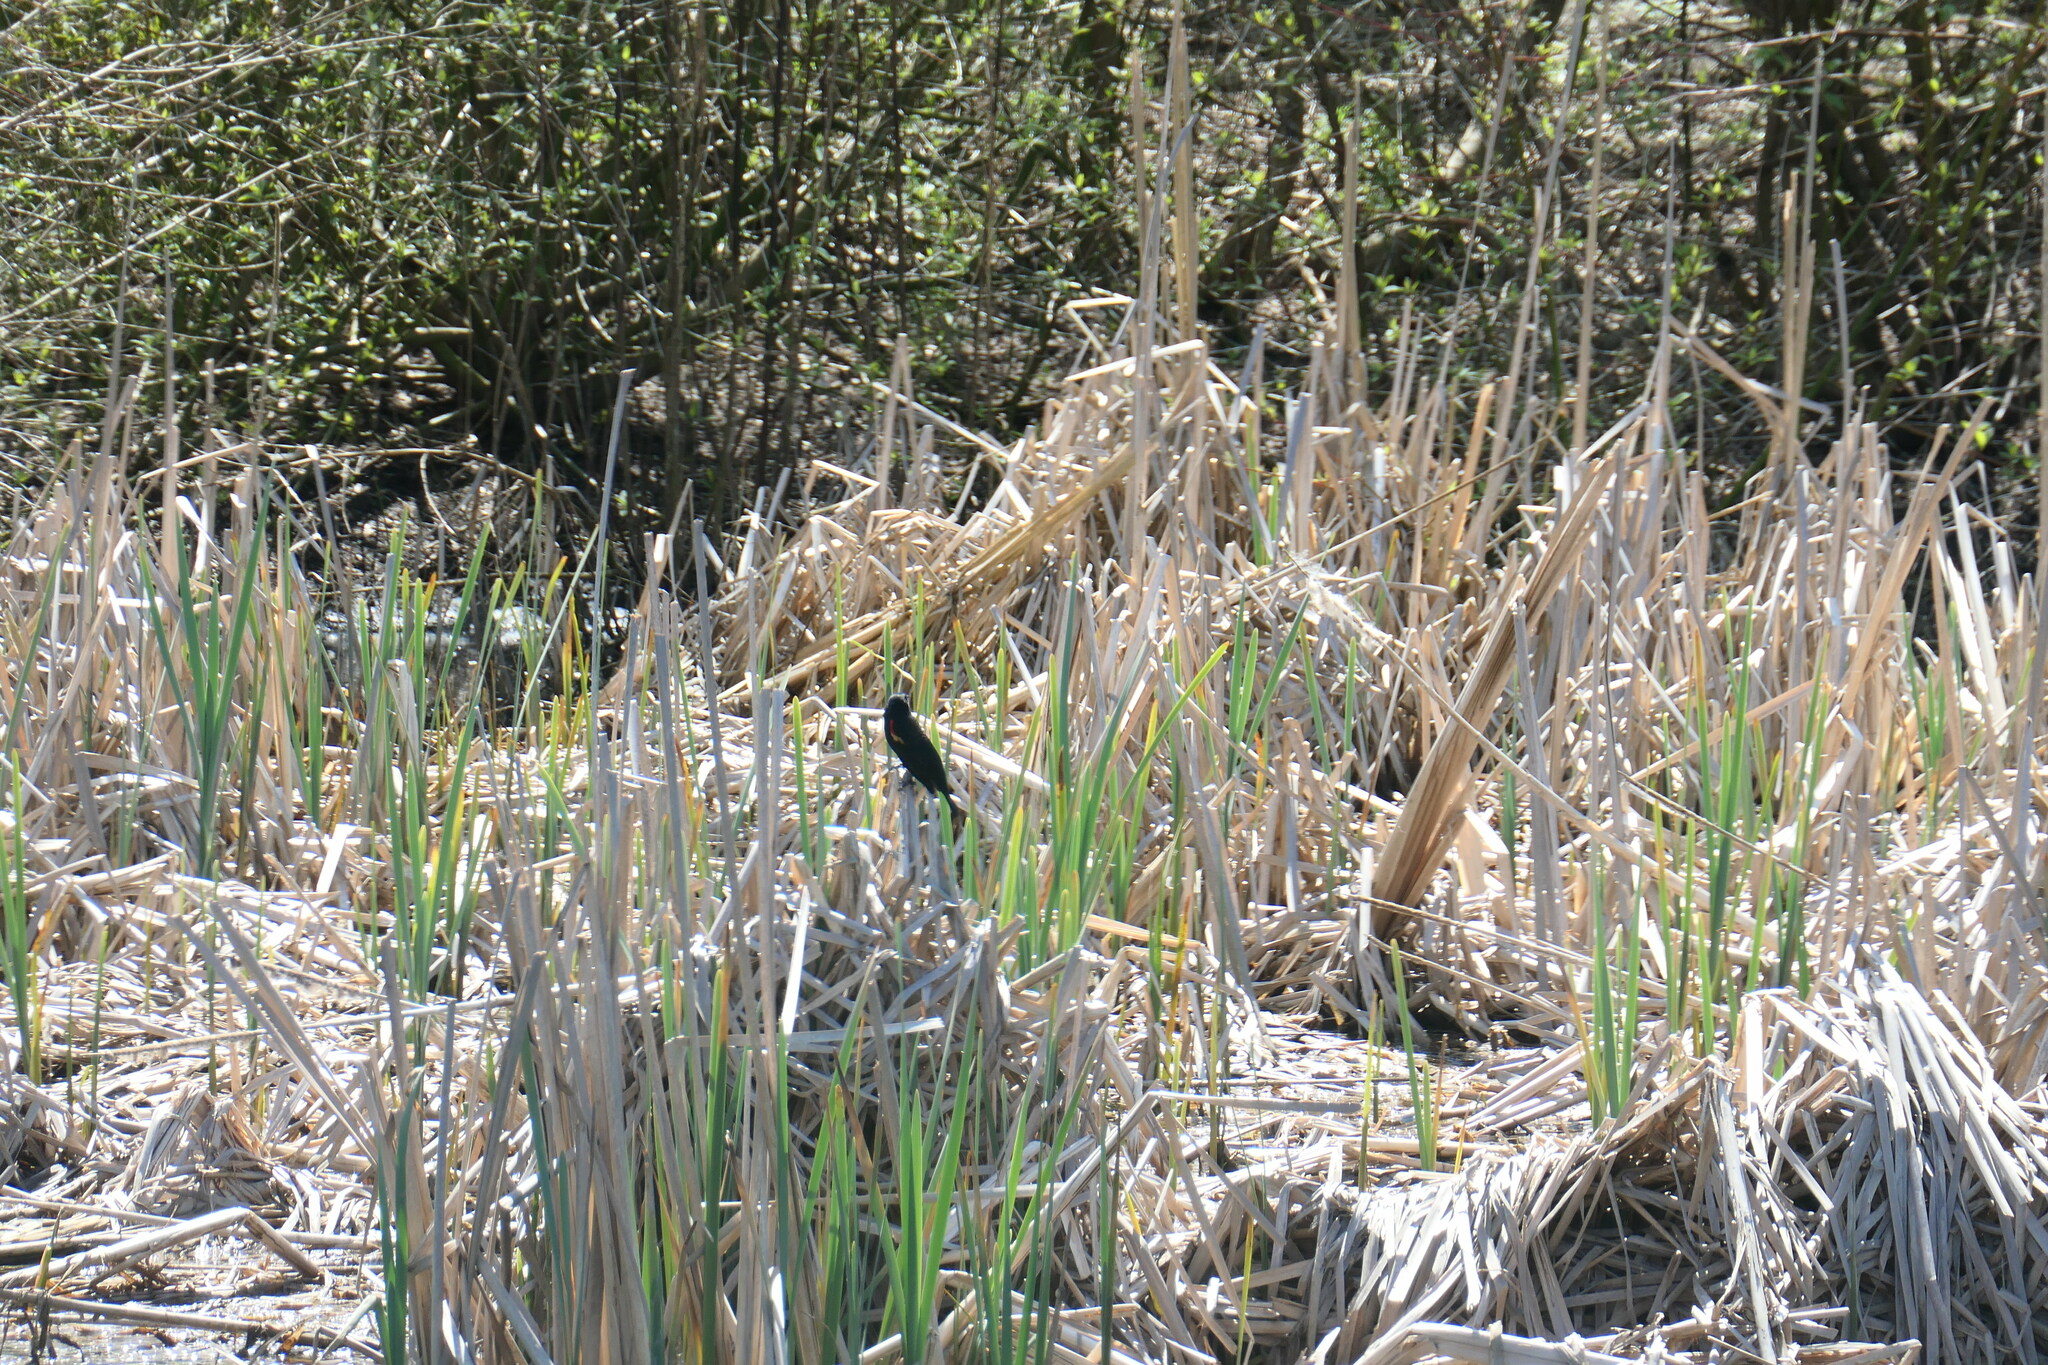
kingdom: Animalia
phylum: Chordata
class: Aves
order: Passeriformes
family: Icteridae
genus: Agelaius
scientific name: Agelaius phoeniceus
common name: Red-winged blackbird
